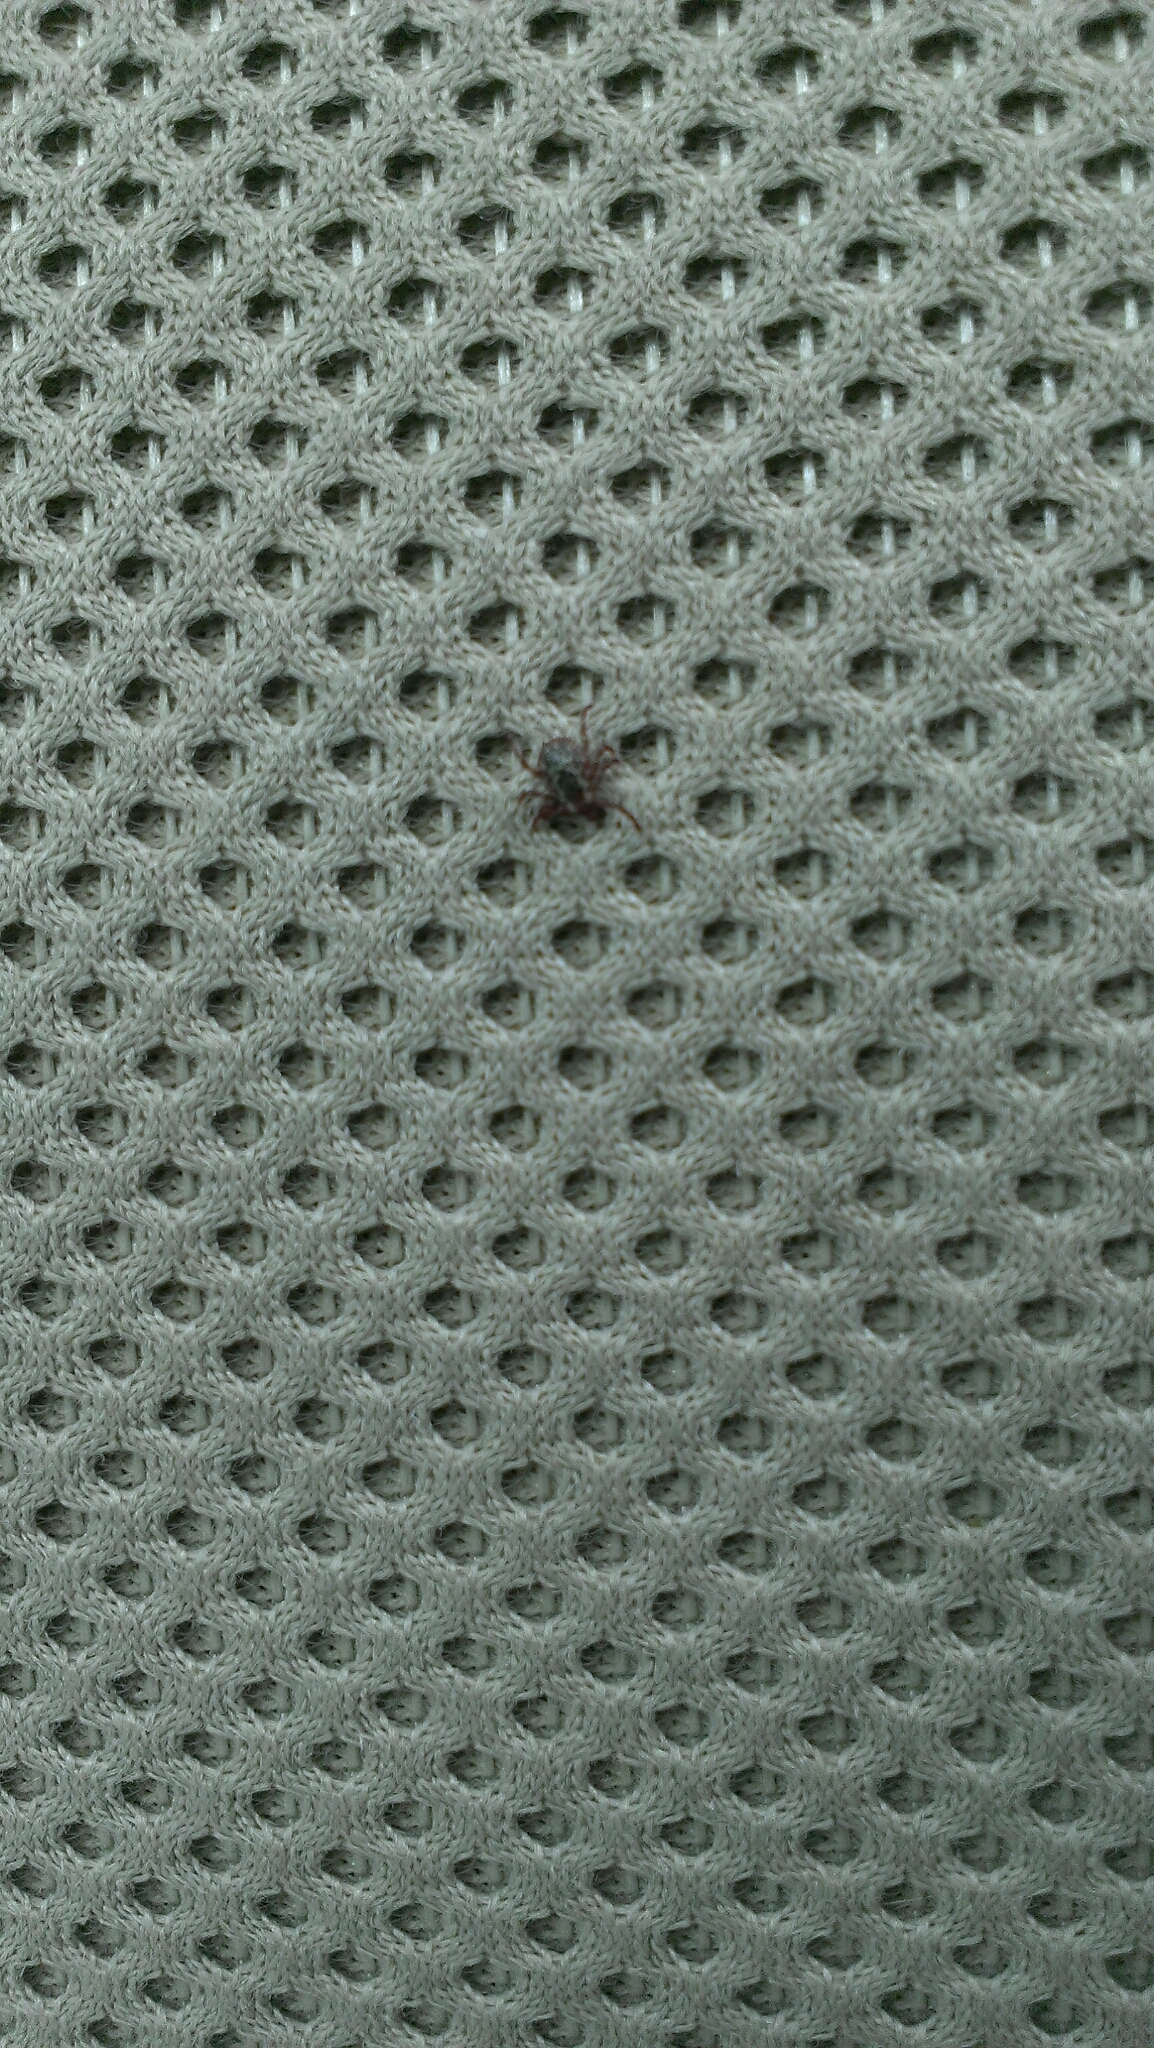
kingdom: Animalia
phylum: Arthropoda
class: Arachnida
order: Ixodida
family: Ixodidae
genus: Dermacentor
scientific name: Dermacentor variabilis
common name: American dog tick
